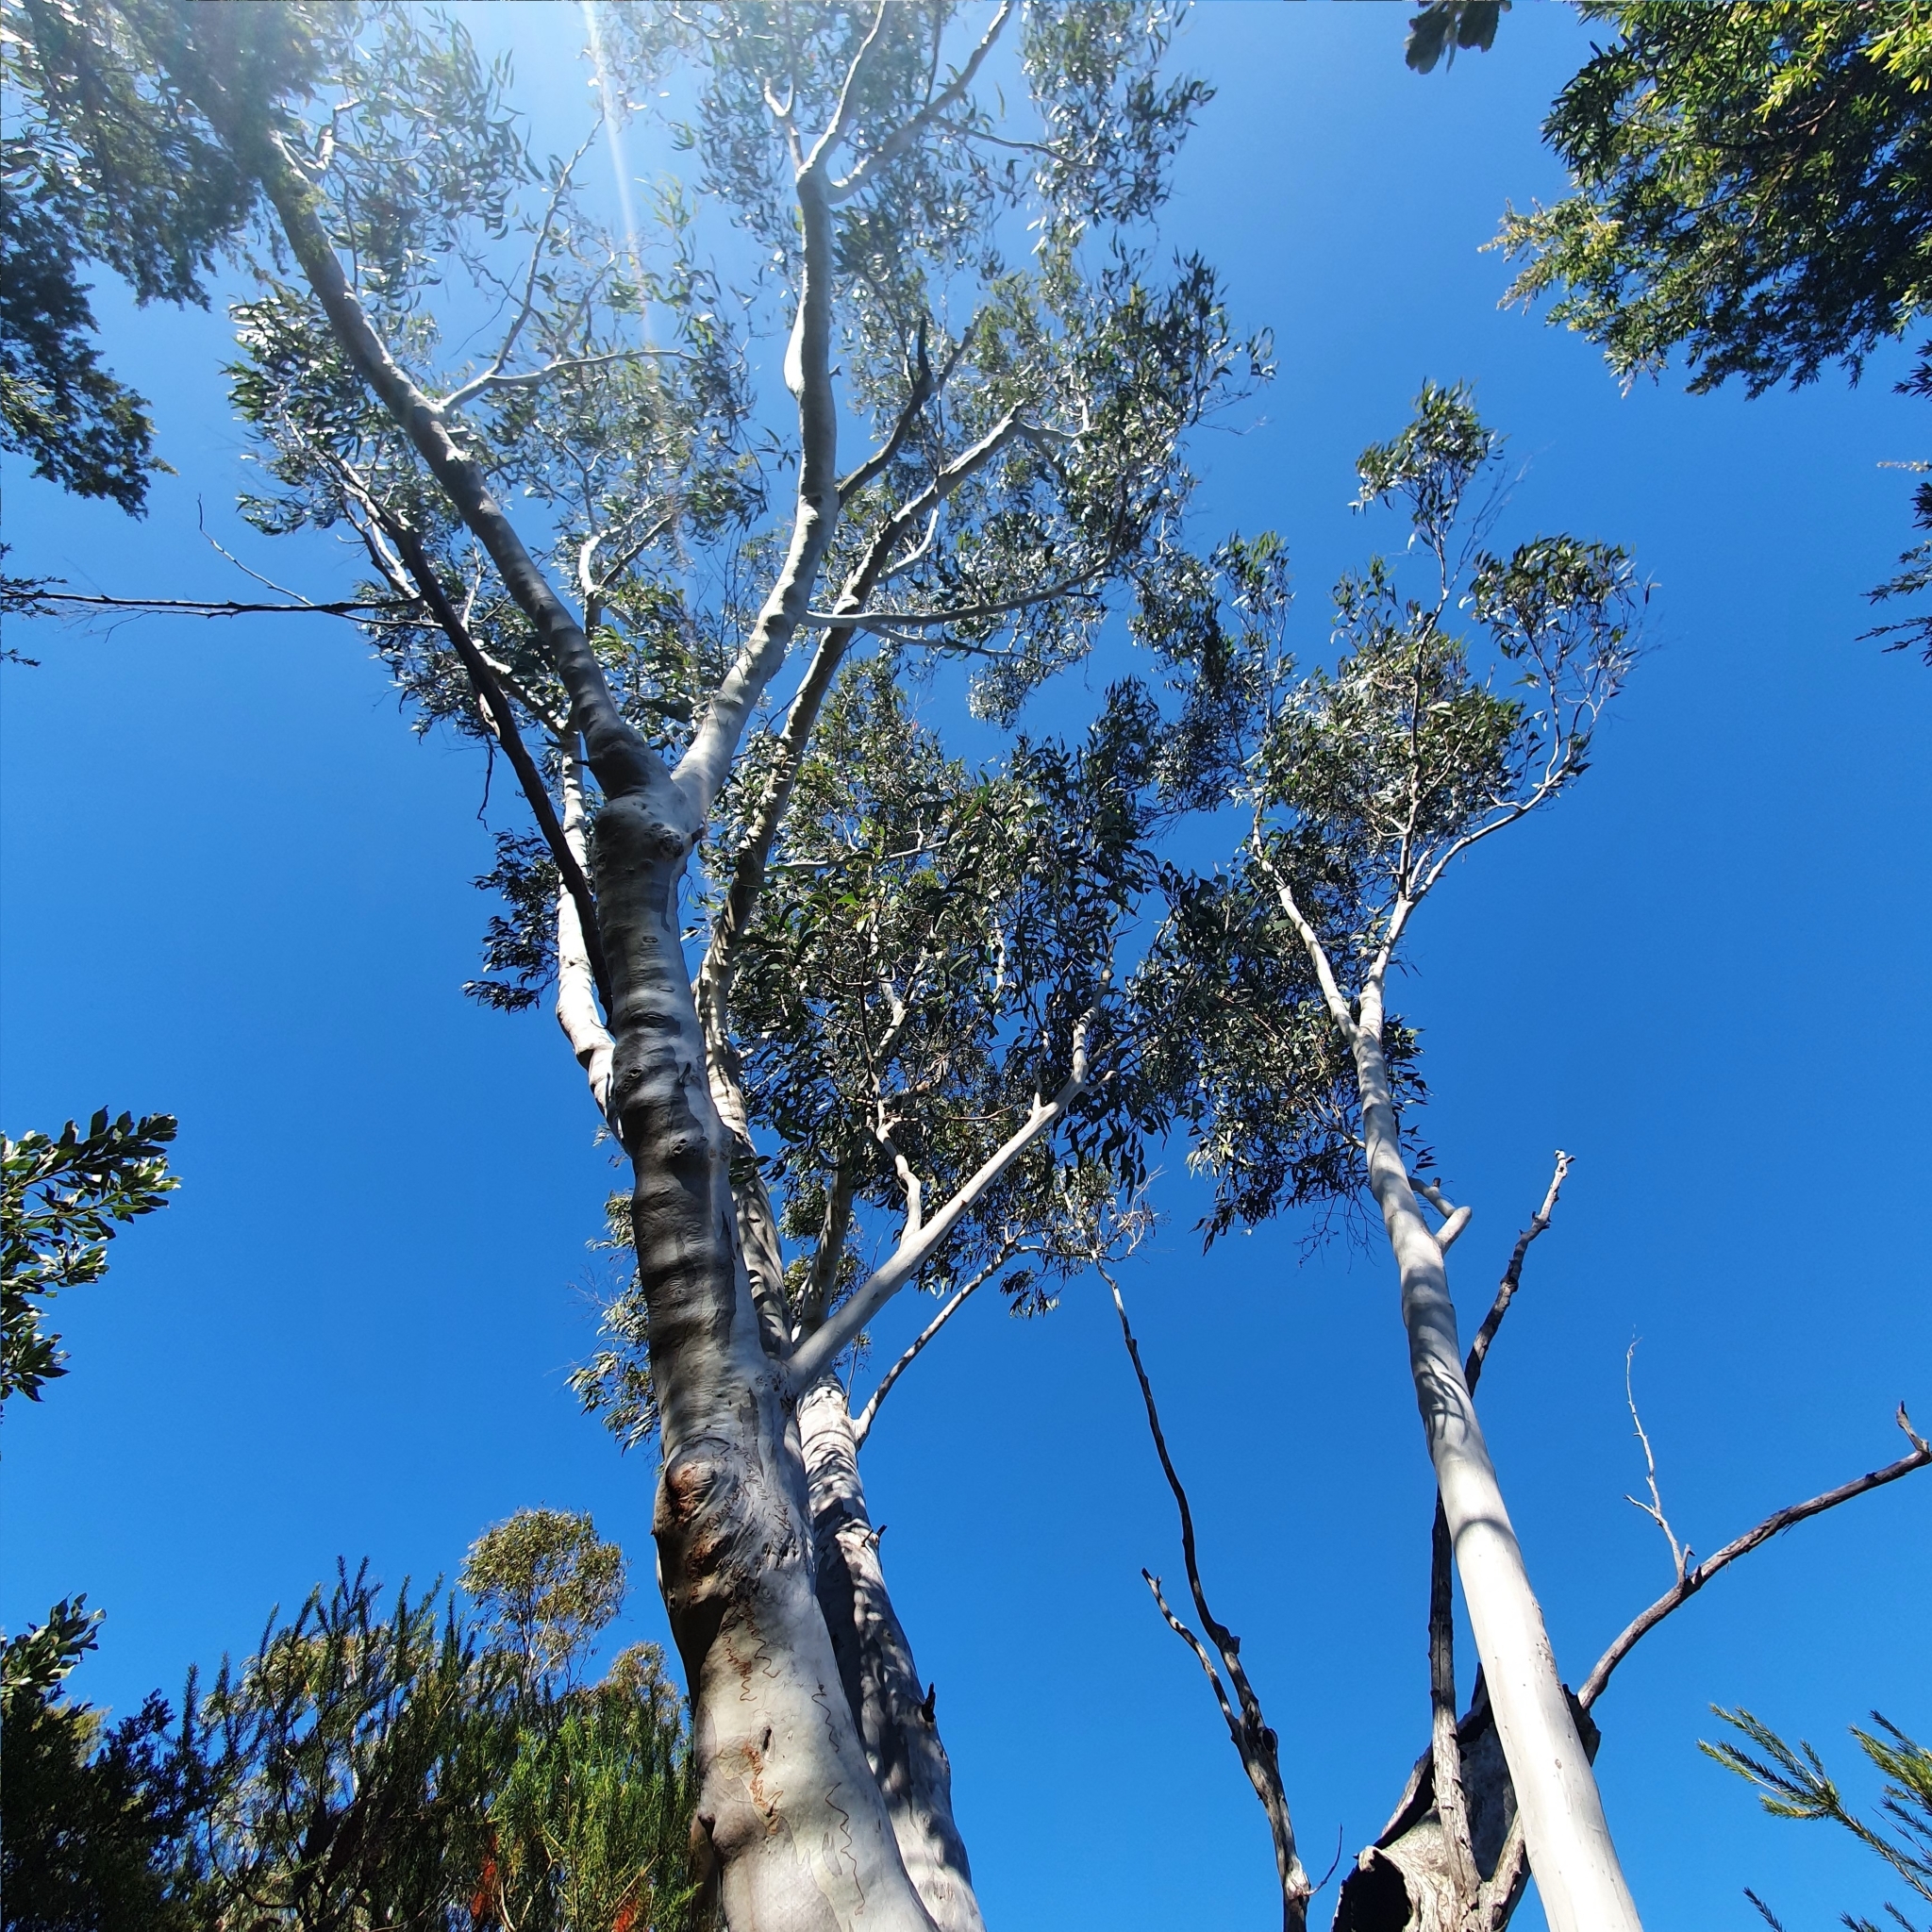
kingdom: Plantae
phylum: Tracheophyta
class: Magnoliopsida
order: Myrtales
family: Myrtaceae
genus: Eucalyptus
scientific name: Eucalyptus racemosa
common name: Scribbly gum
